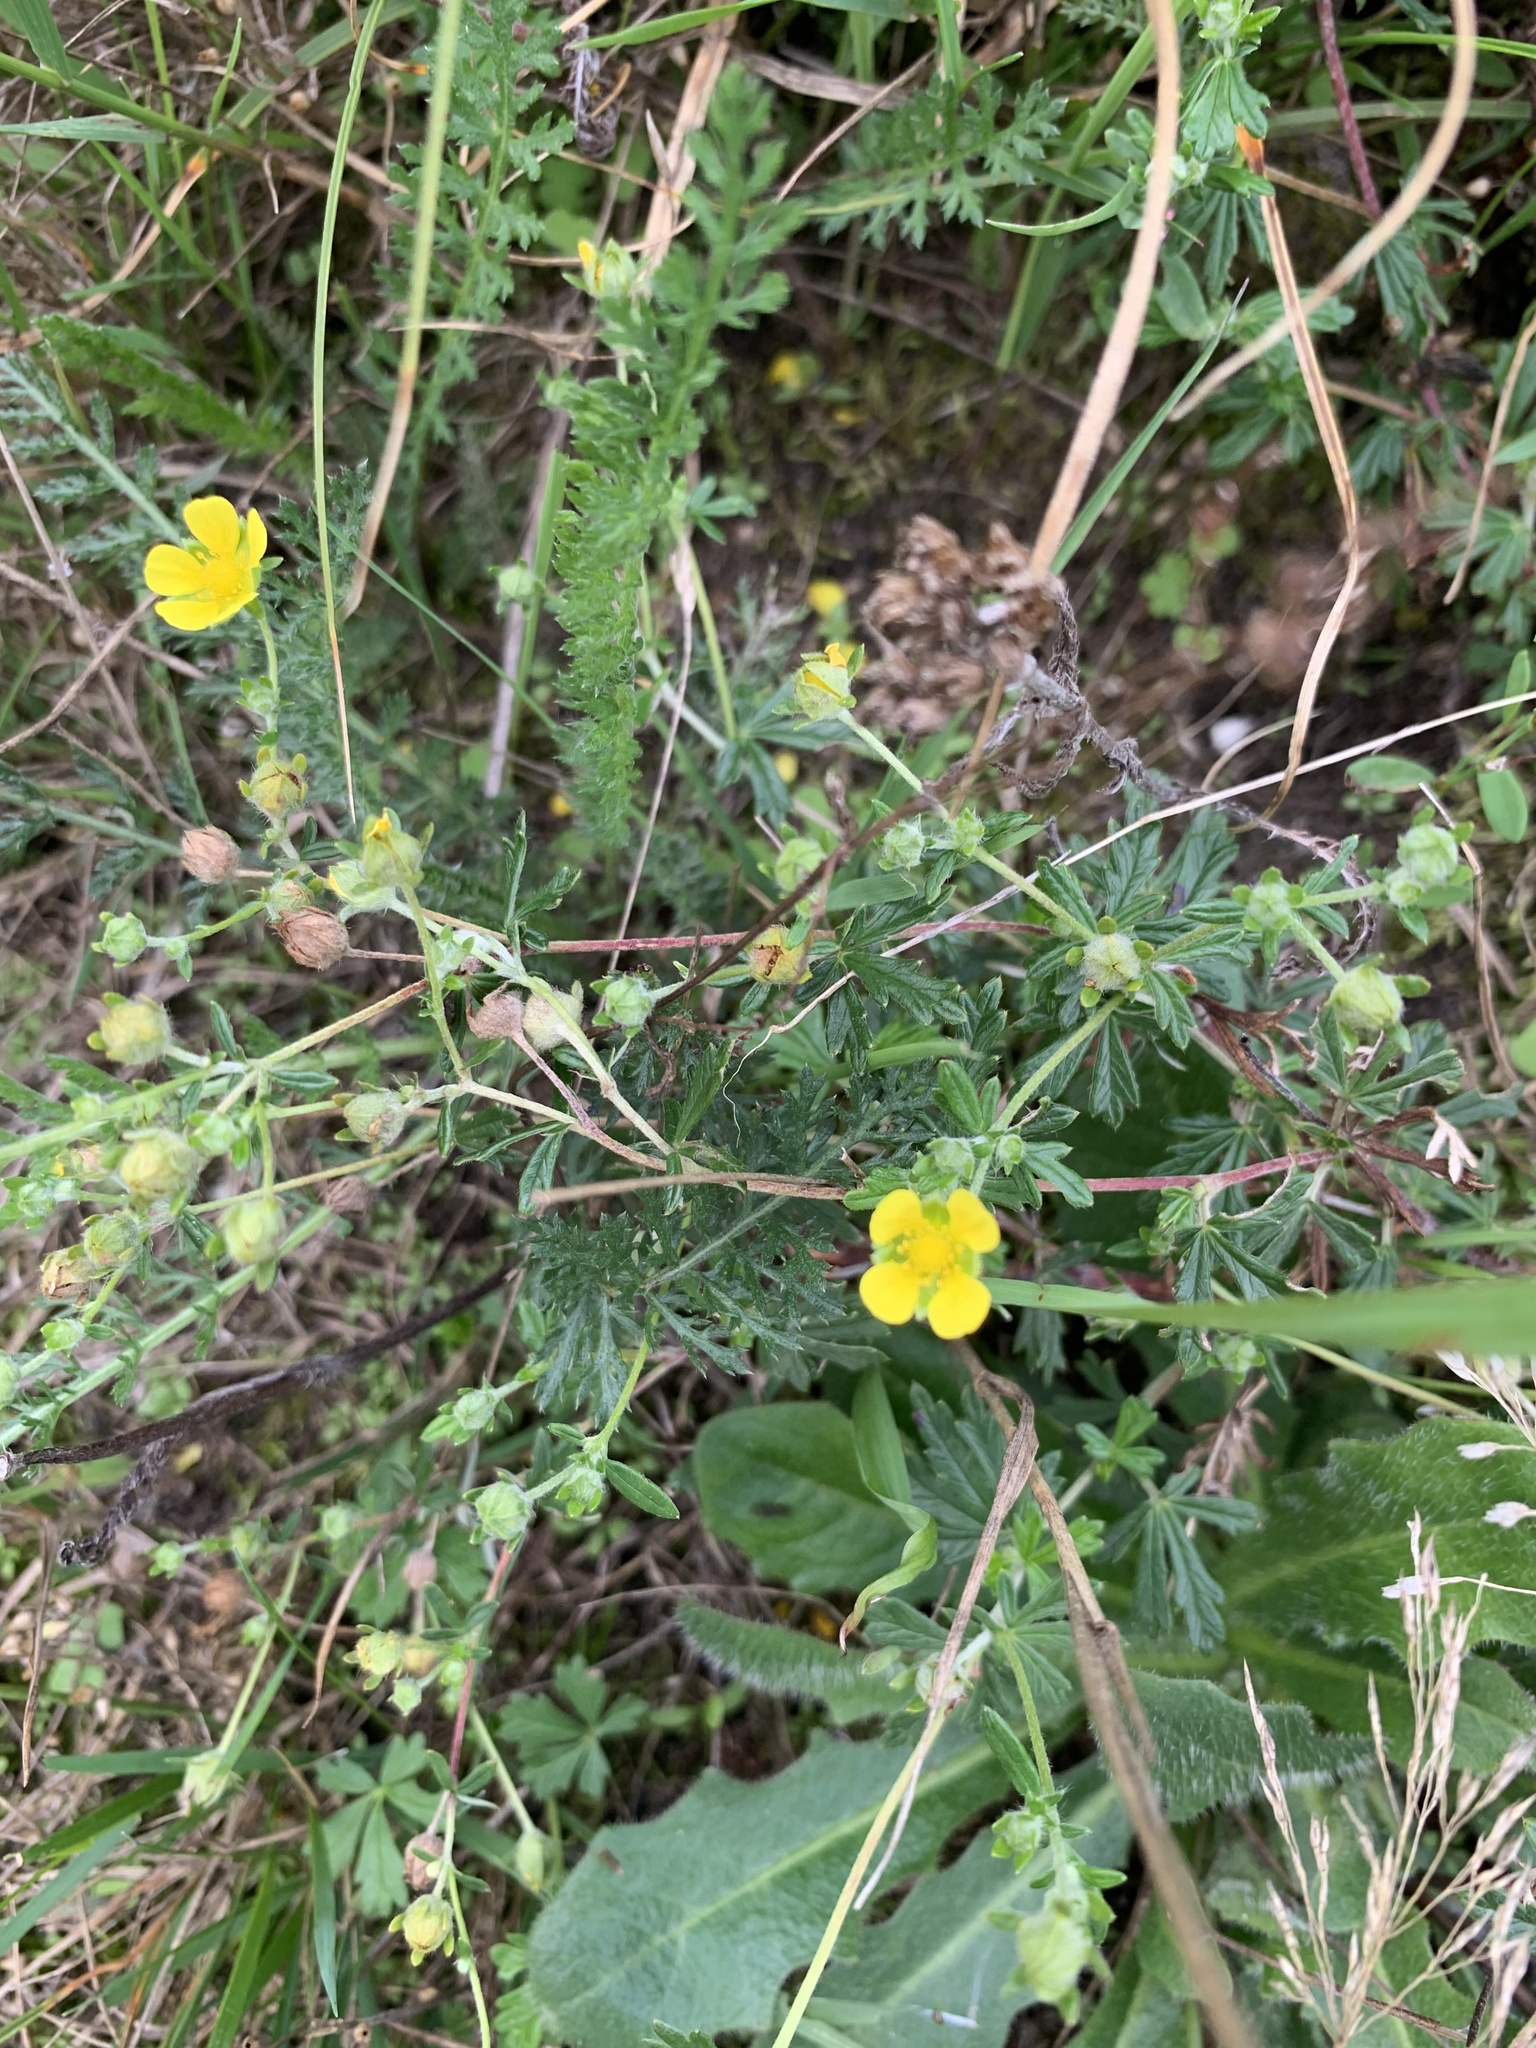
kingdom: Plantae
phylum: Tracheophyta
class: Magnoliopsida
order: Rosales
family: Rosaceae
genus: Potentilla
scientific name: Potentilla argentea
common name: Hoary cinquefoil
